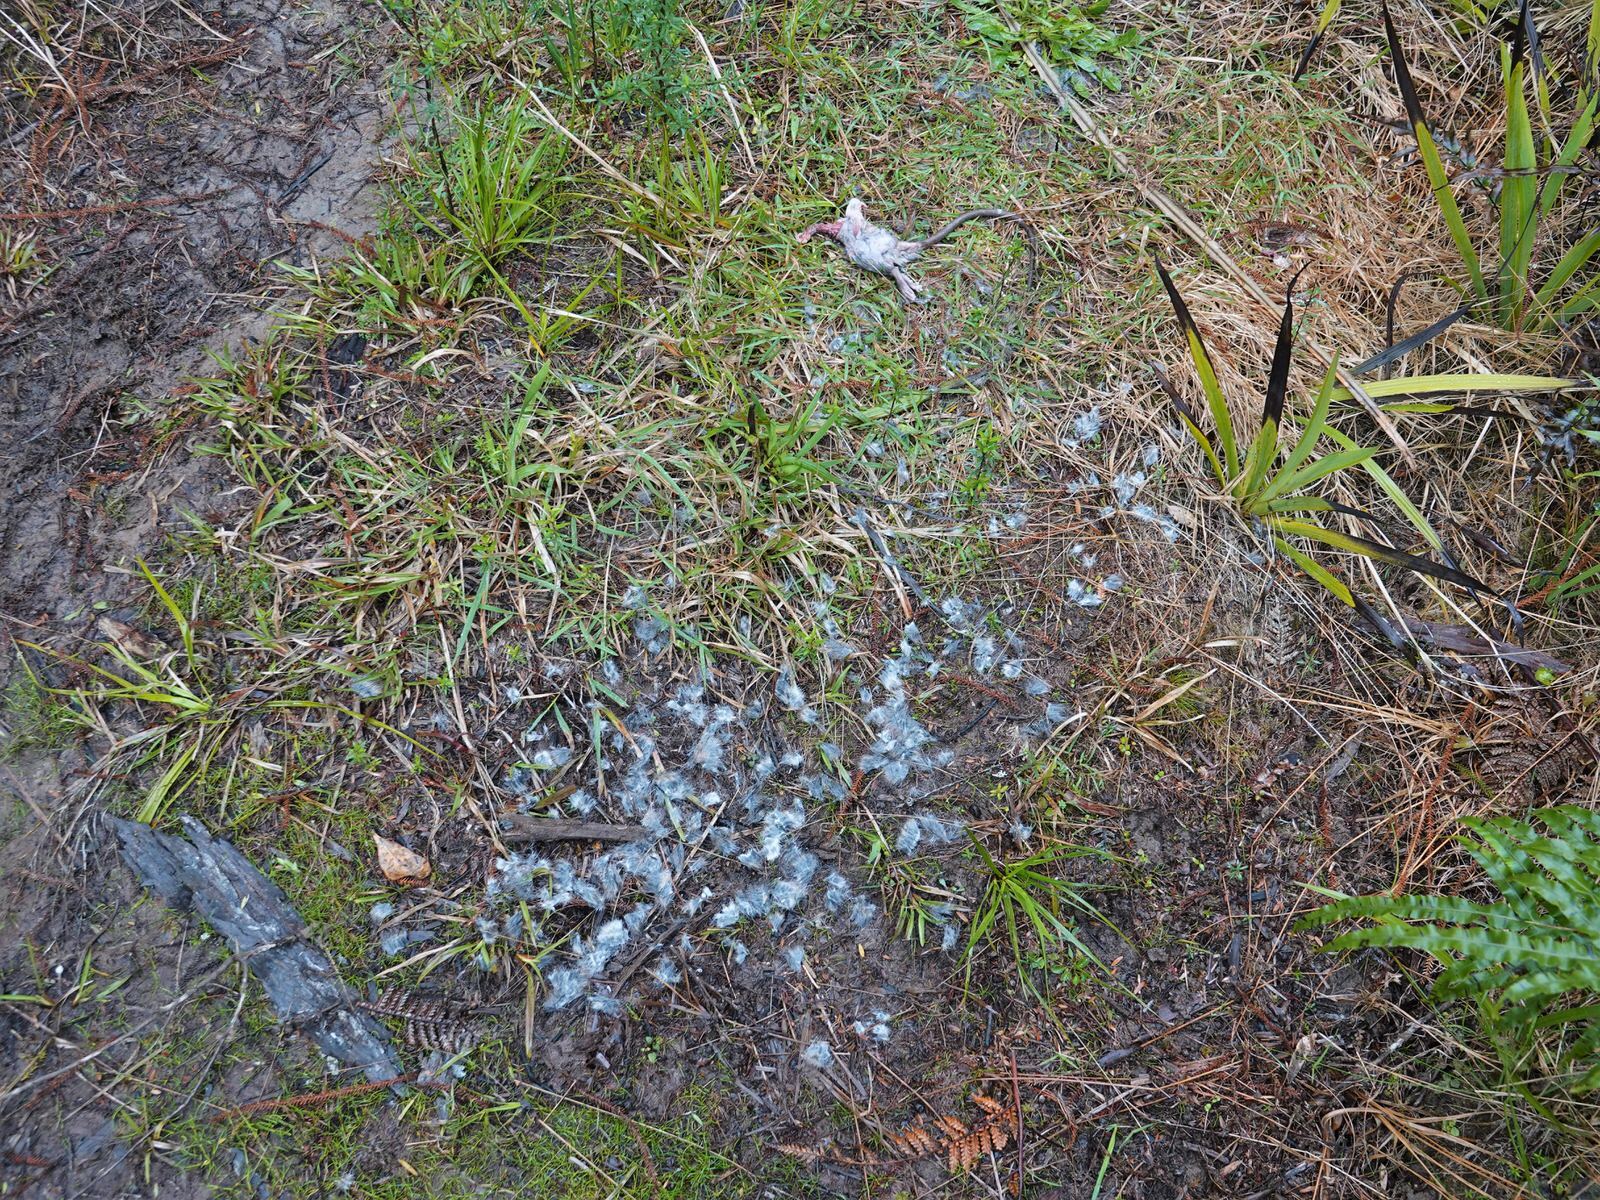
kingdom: Animalia
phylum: Chordata
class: Mammalia
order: Rodentia
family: Muridae
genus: Rattus
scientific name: Rattus rattus
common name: Black rat
